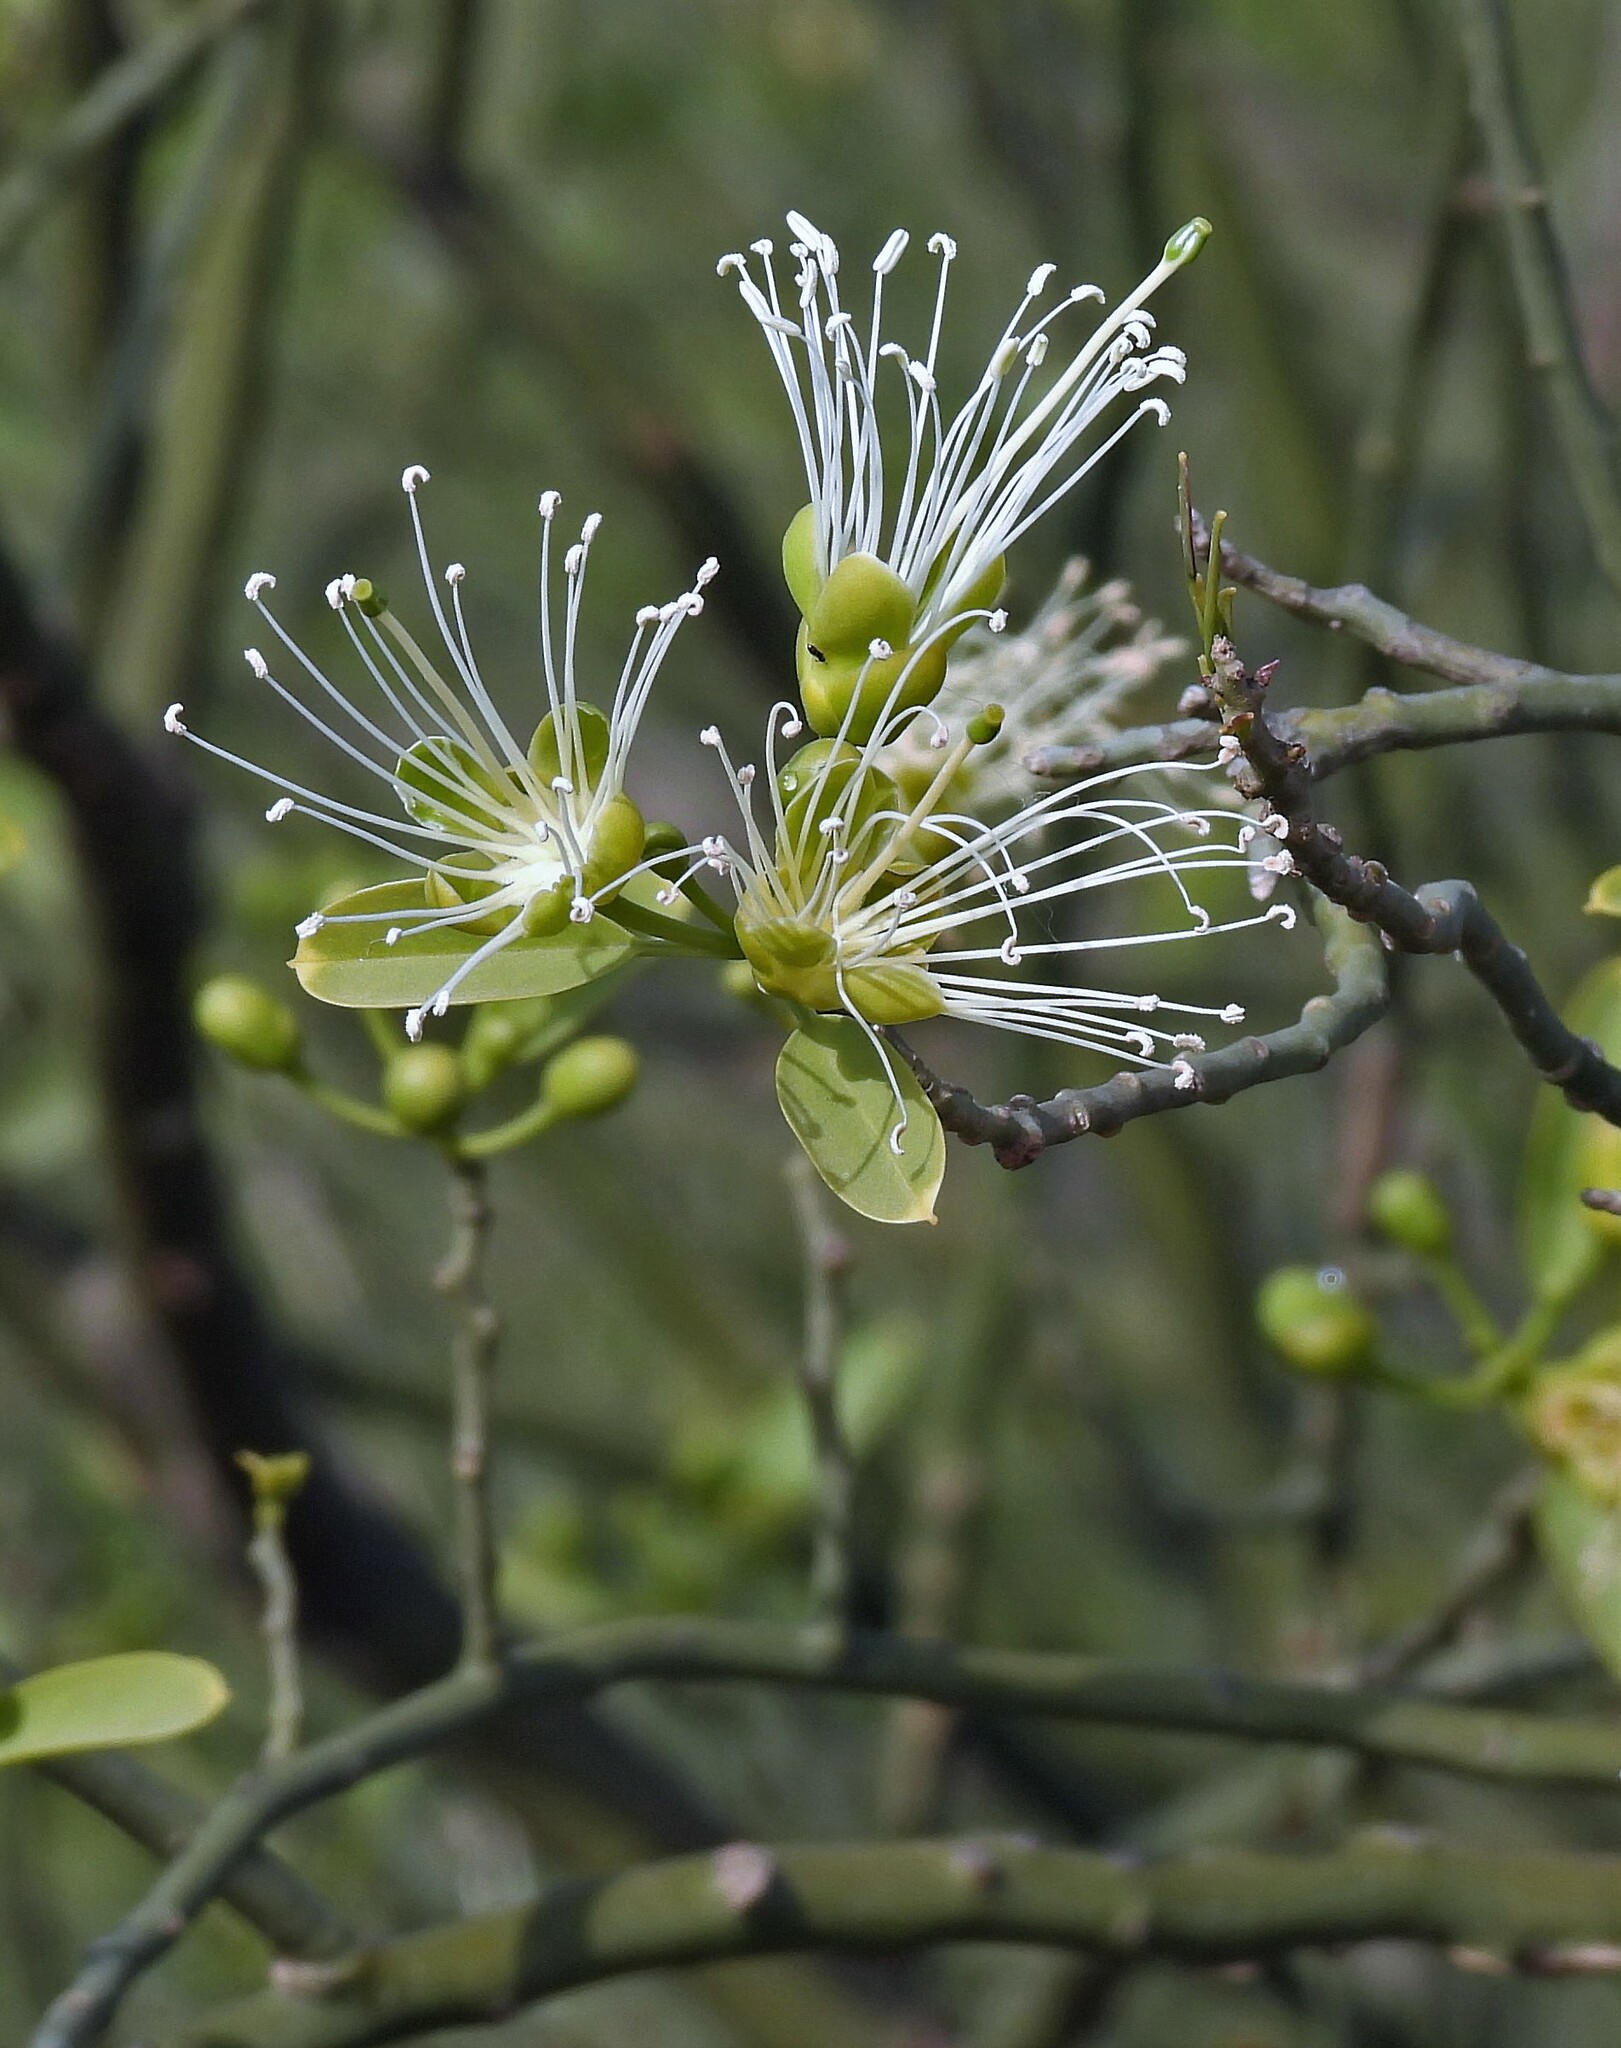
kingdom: Plantae
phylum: Tracheophyta
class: Magnoliopsida
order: Brassicales
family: Capparaceae
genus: Anisocapparis
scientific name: Anisocapparis speciosa
